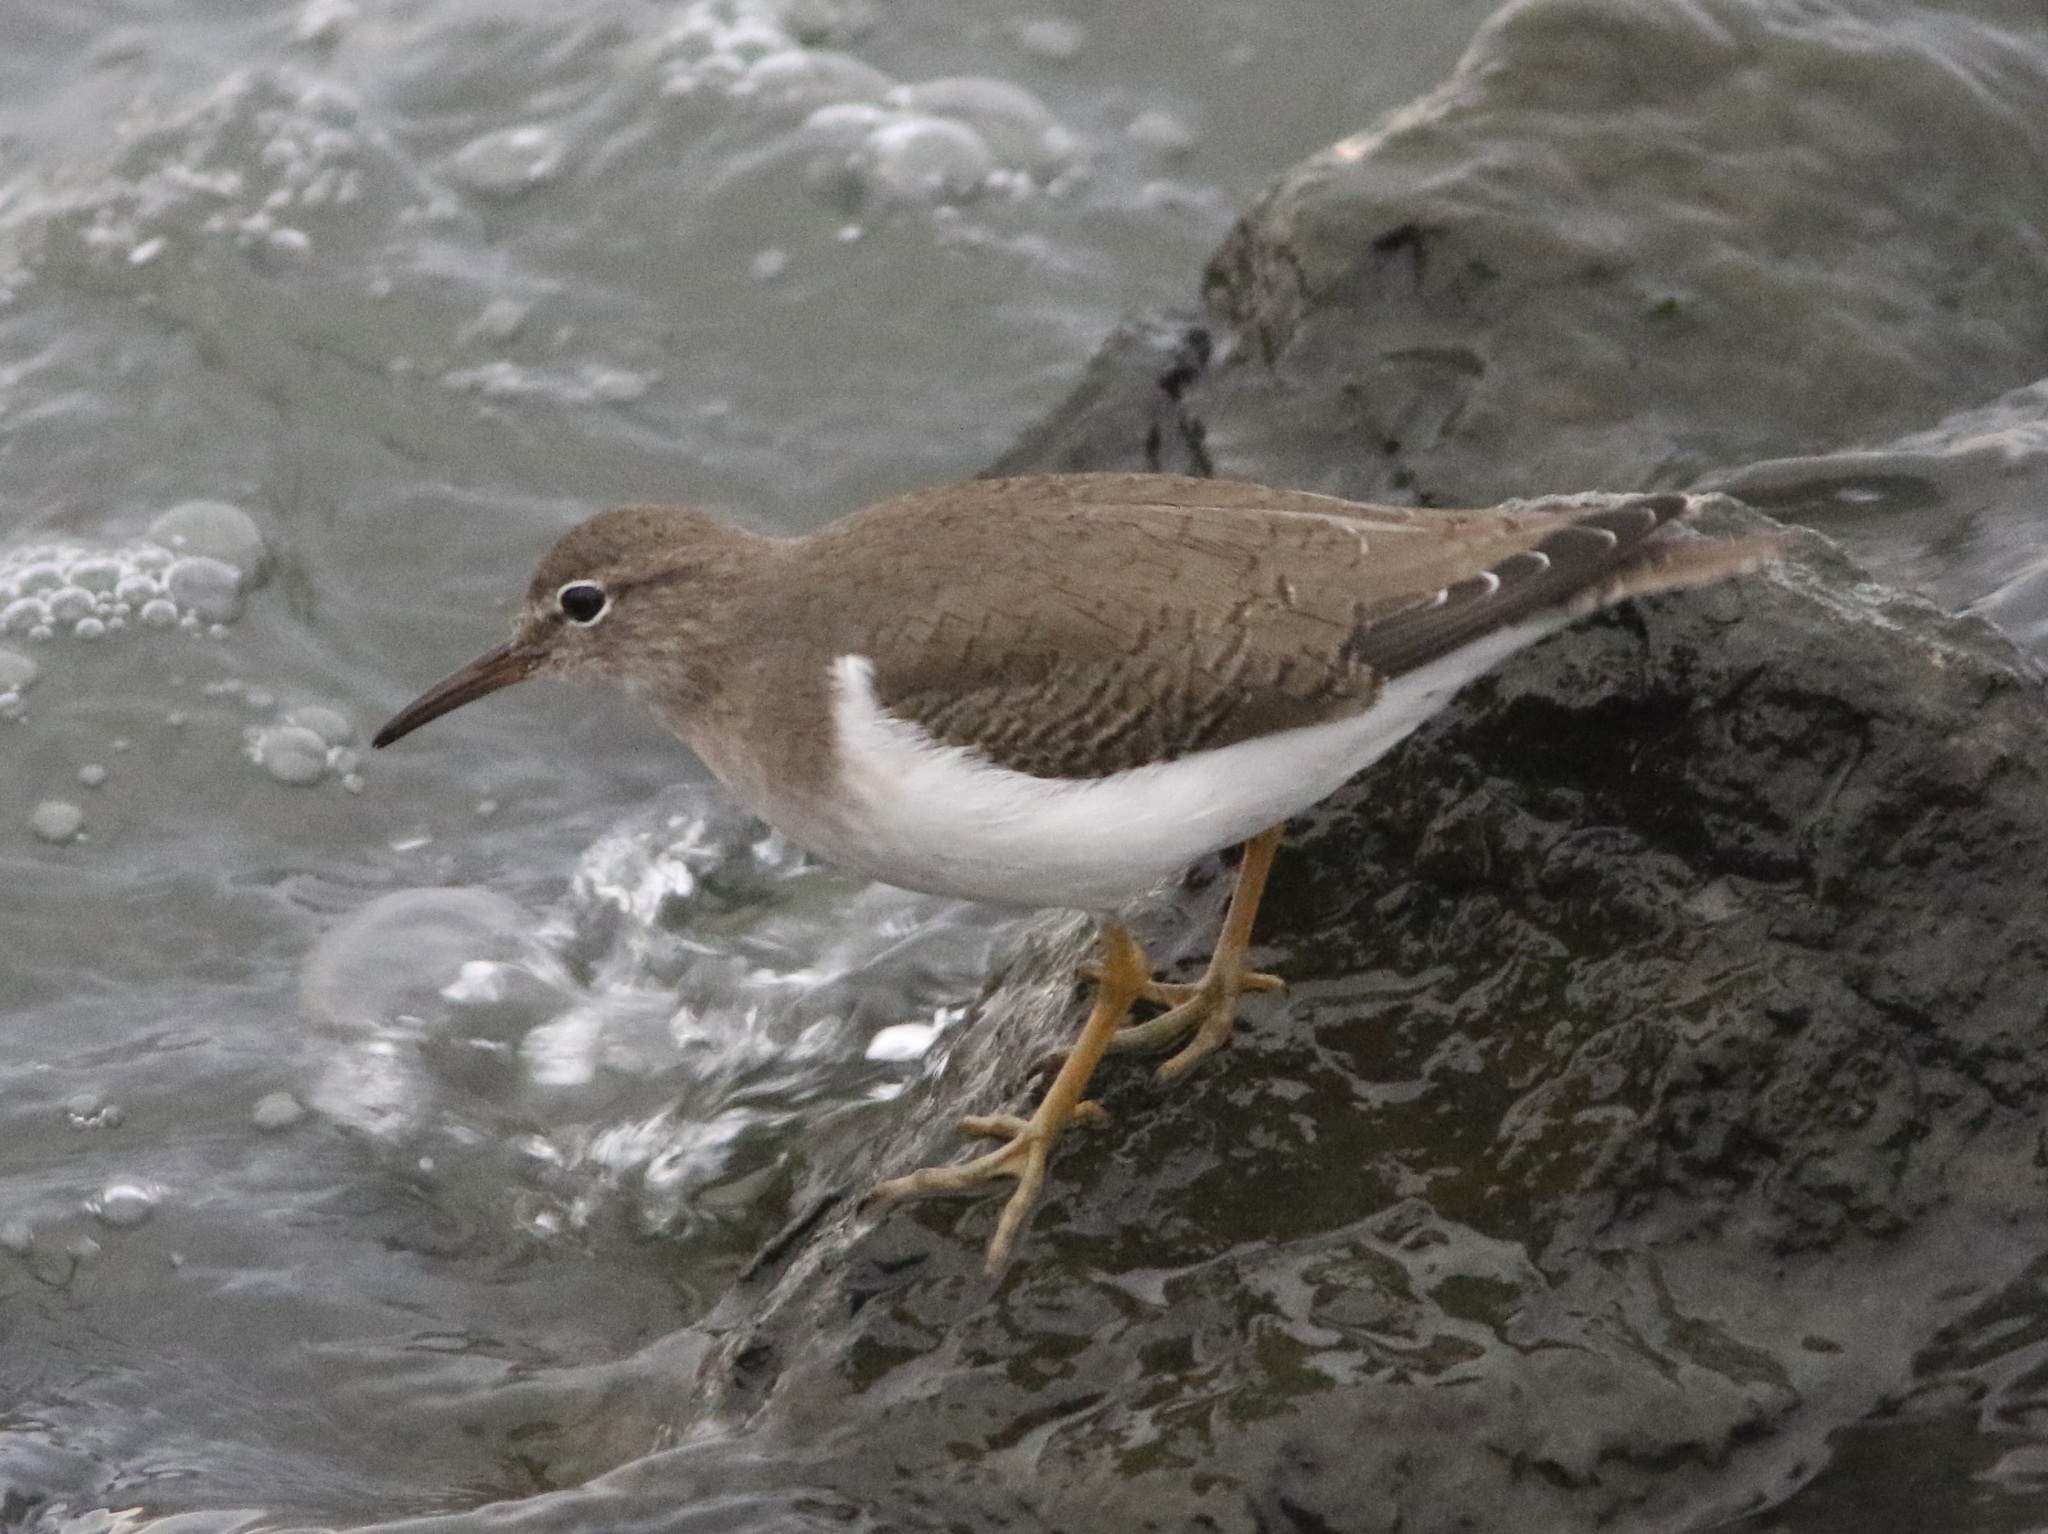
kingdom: Animalia
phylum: Chordata
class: Aves
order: Charadriiformes
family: Scolopacidae
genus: Actitis
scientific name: Actitis macularius
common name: Spotted sandpiper
